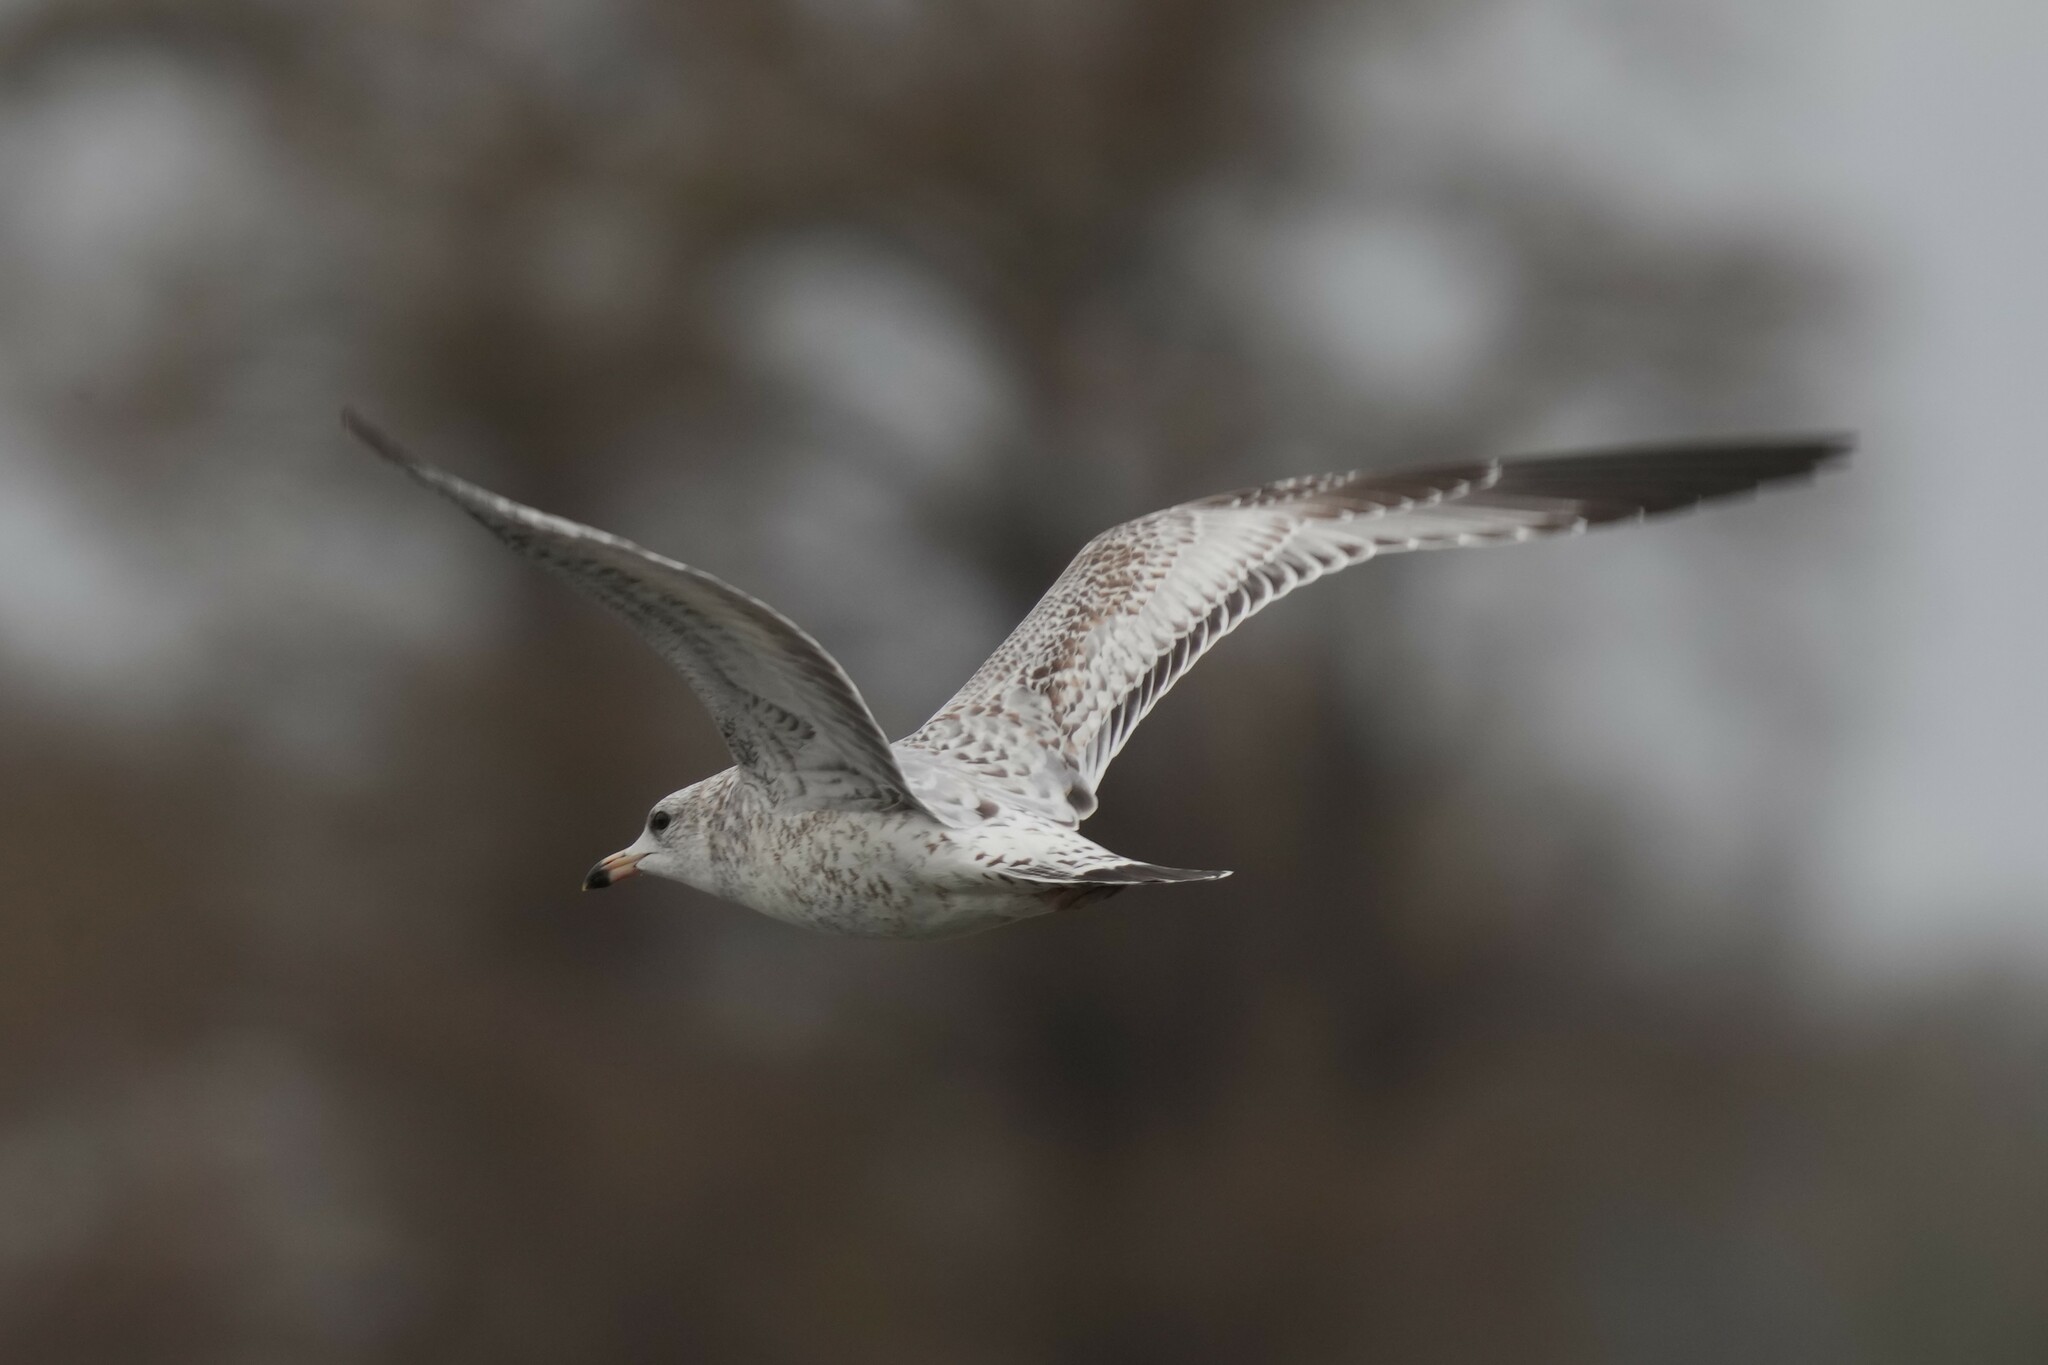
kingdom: Animalia
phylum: Chordata
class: Aves
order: Charadriiformes
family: Laridae
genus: Larus
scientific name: Larus delawarensis
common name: Ring-billed gull
